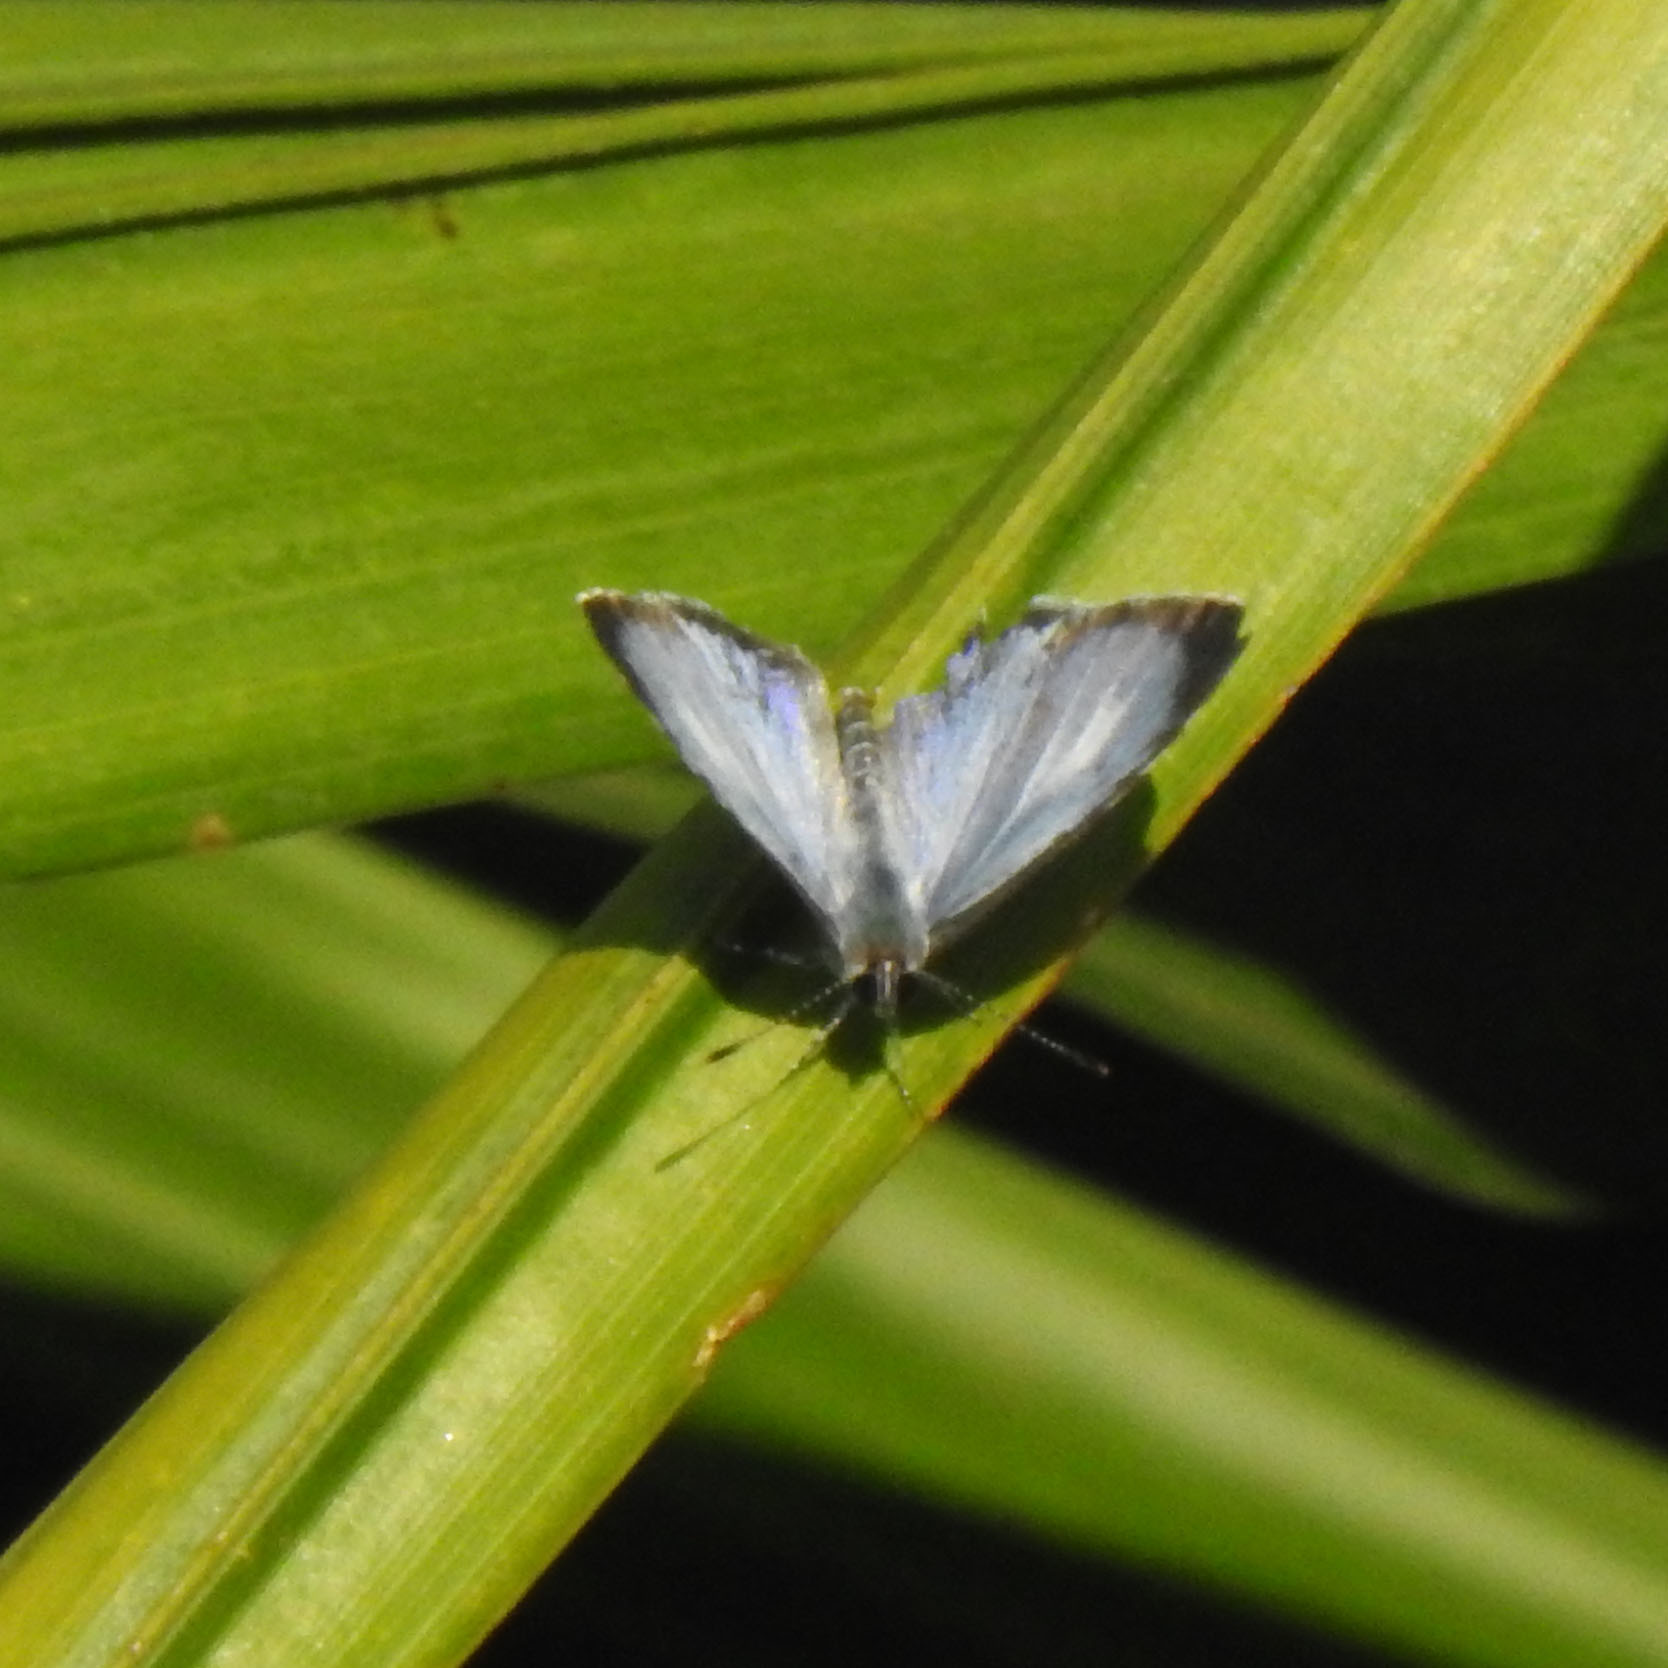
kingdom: Animalia
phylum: Arthropoda
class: Insecta
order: Lepidoptera
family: Lycaenidae
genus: Acytolepis
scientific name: Acytolepis puspa
